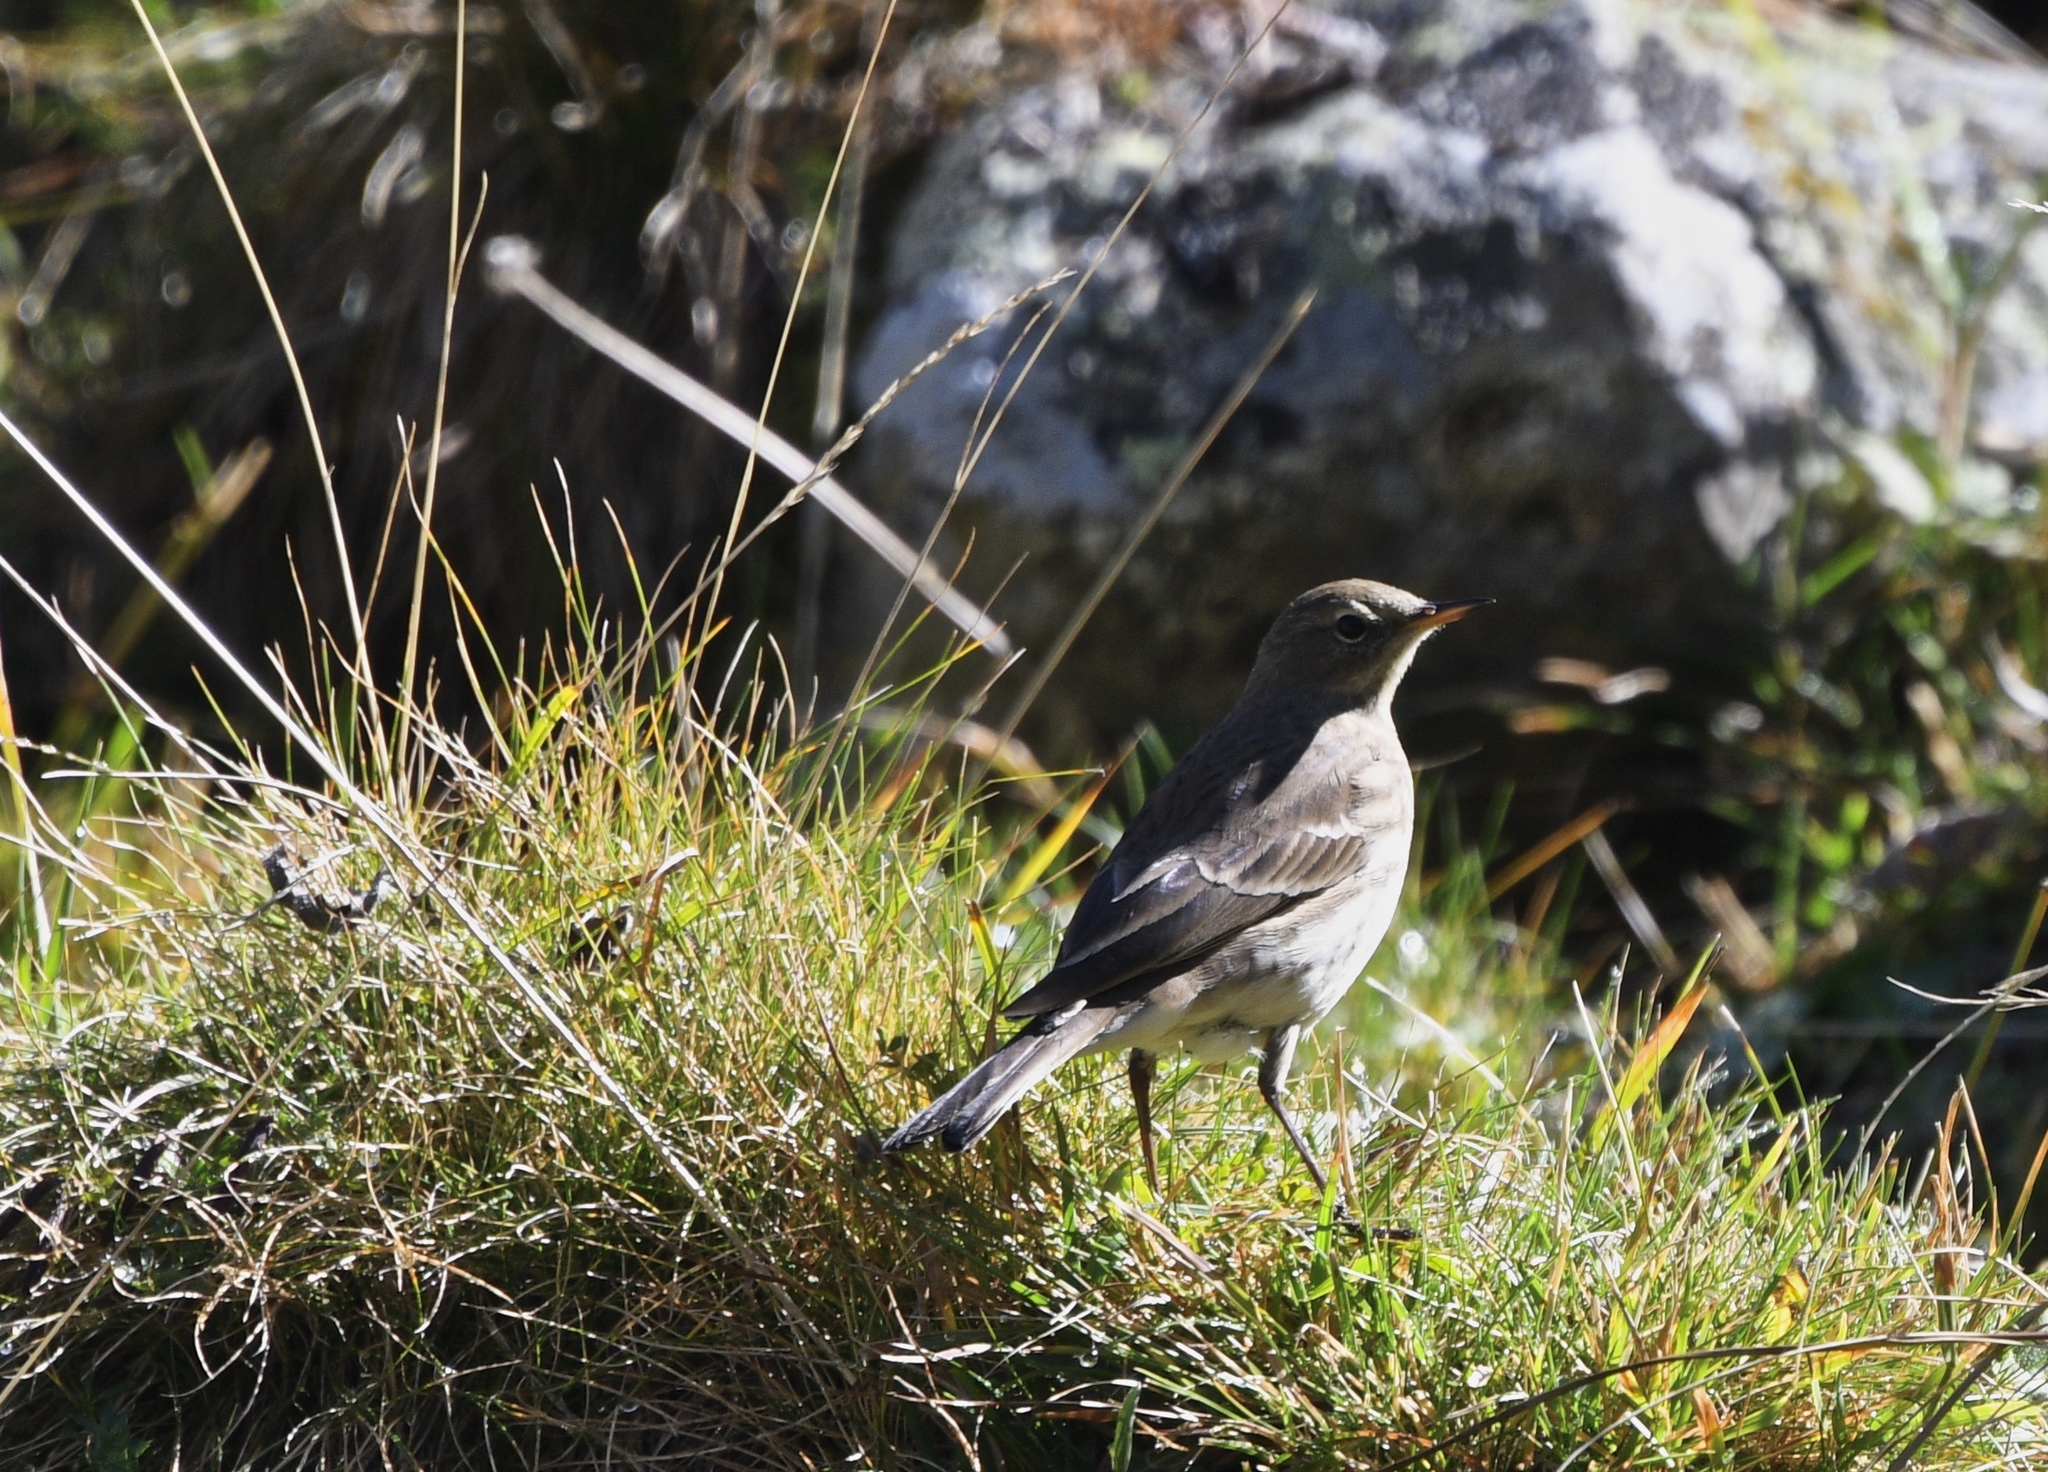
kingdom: Animalia
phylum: Chordata
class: Aves
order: Passeriformes
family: Motacillidae
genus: Anthus
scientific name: Anthus spinoletta
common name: Water pipit
